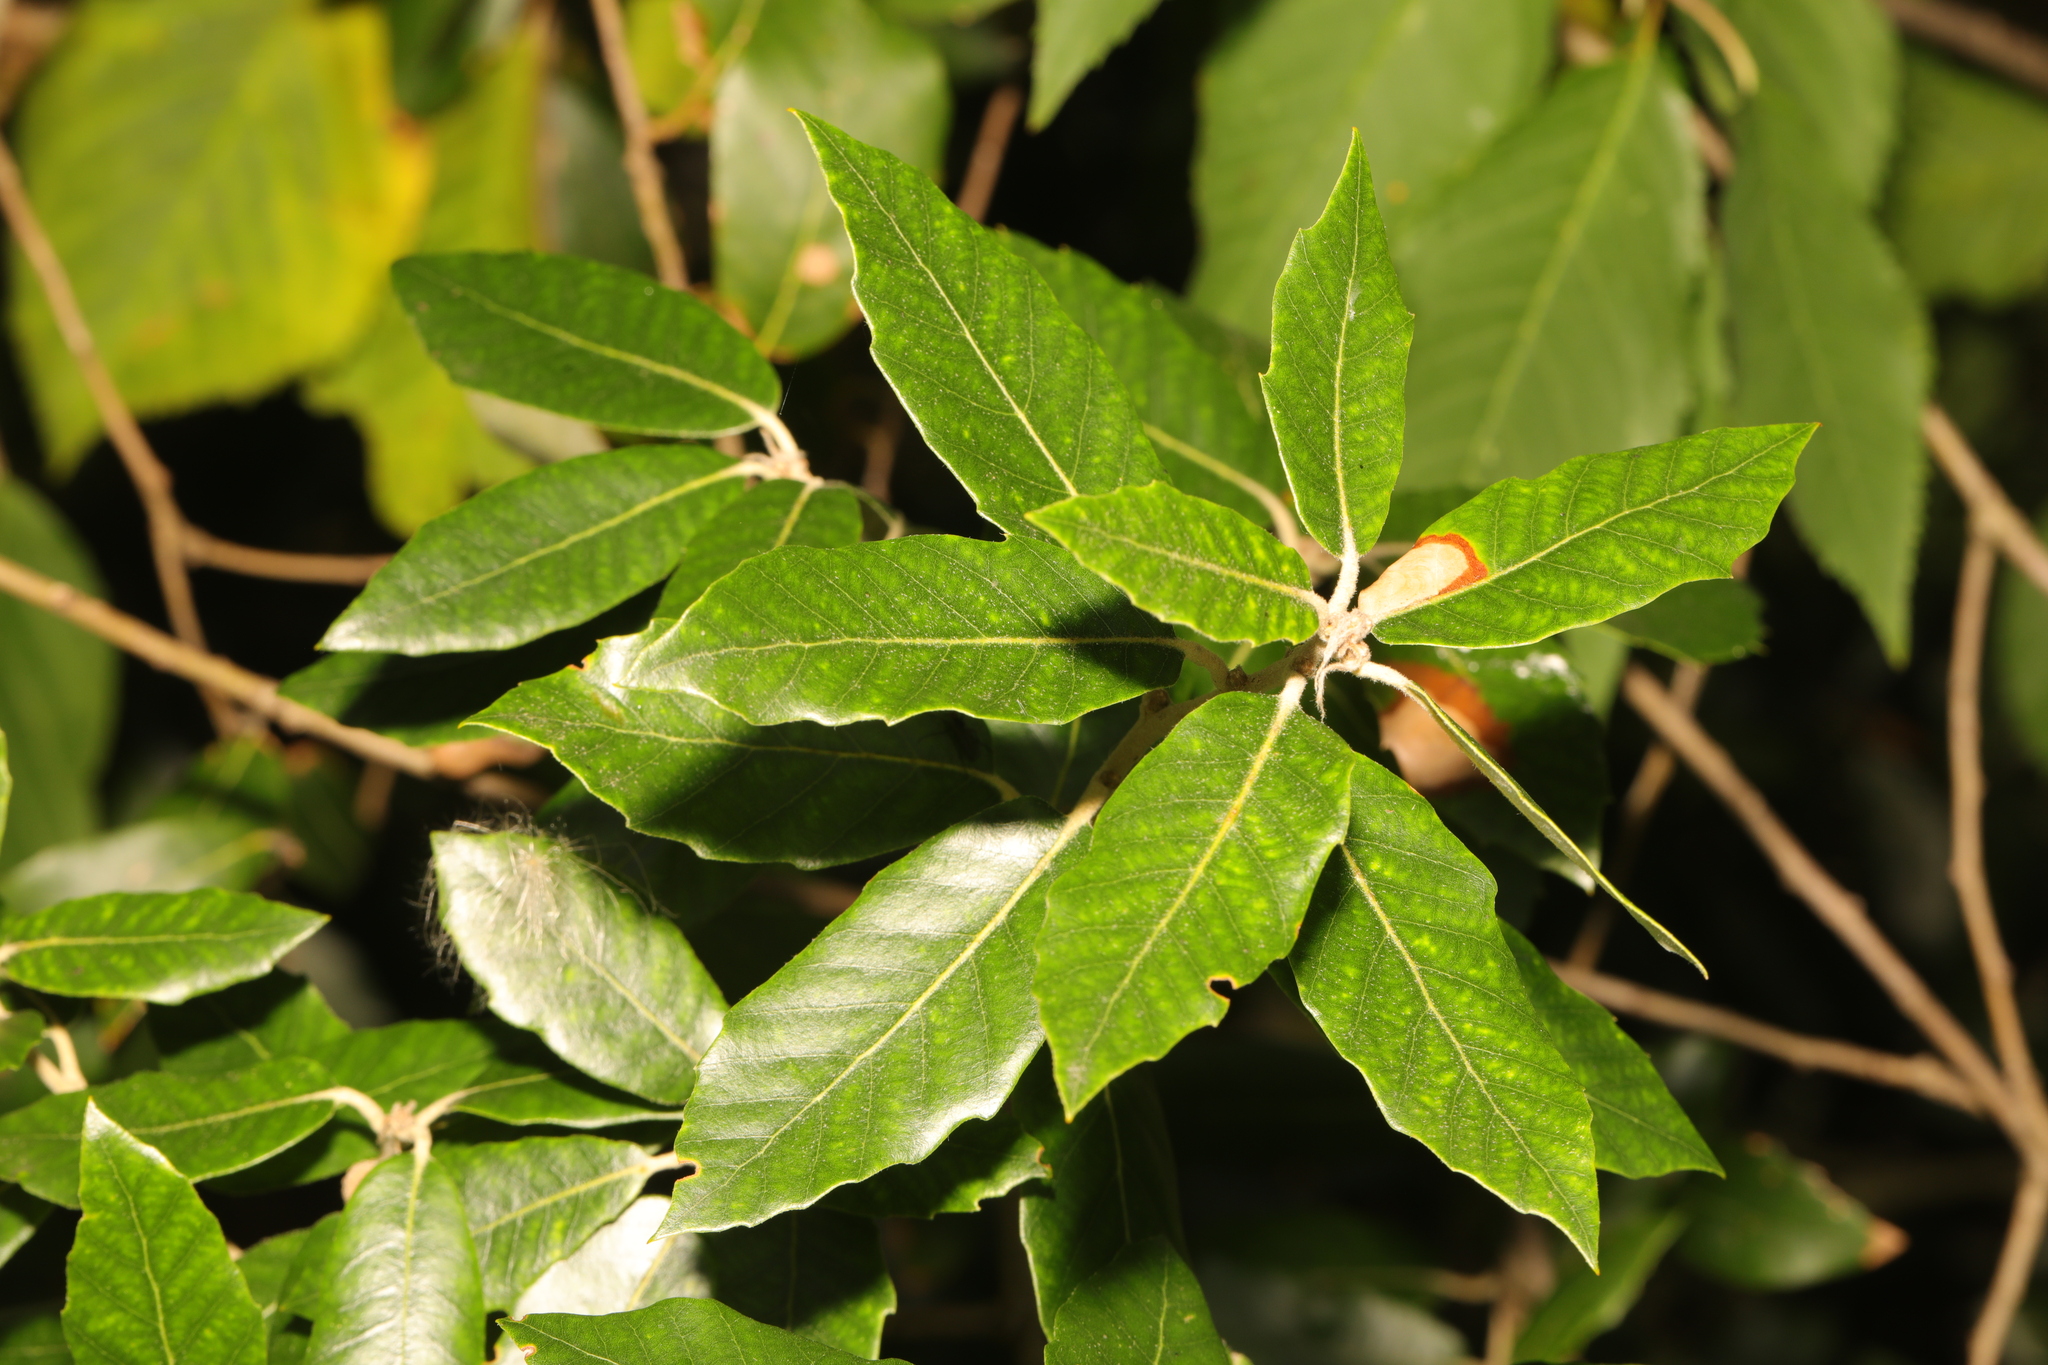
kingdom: Plantae
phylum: Tracheophyta
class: Magnoliopsida
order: Fagales
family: Fagaceae
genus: Quercus
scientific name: Quercus ilex
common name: Evergreen oak
